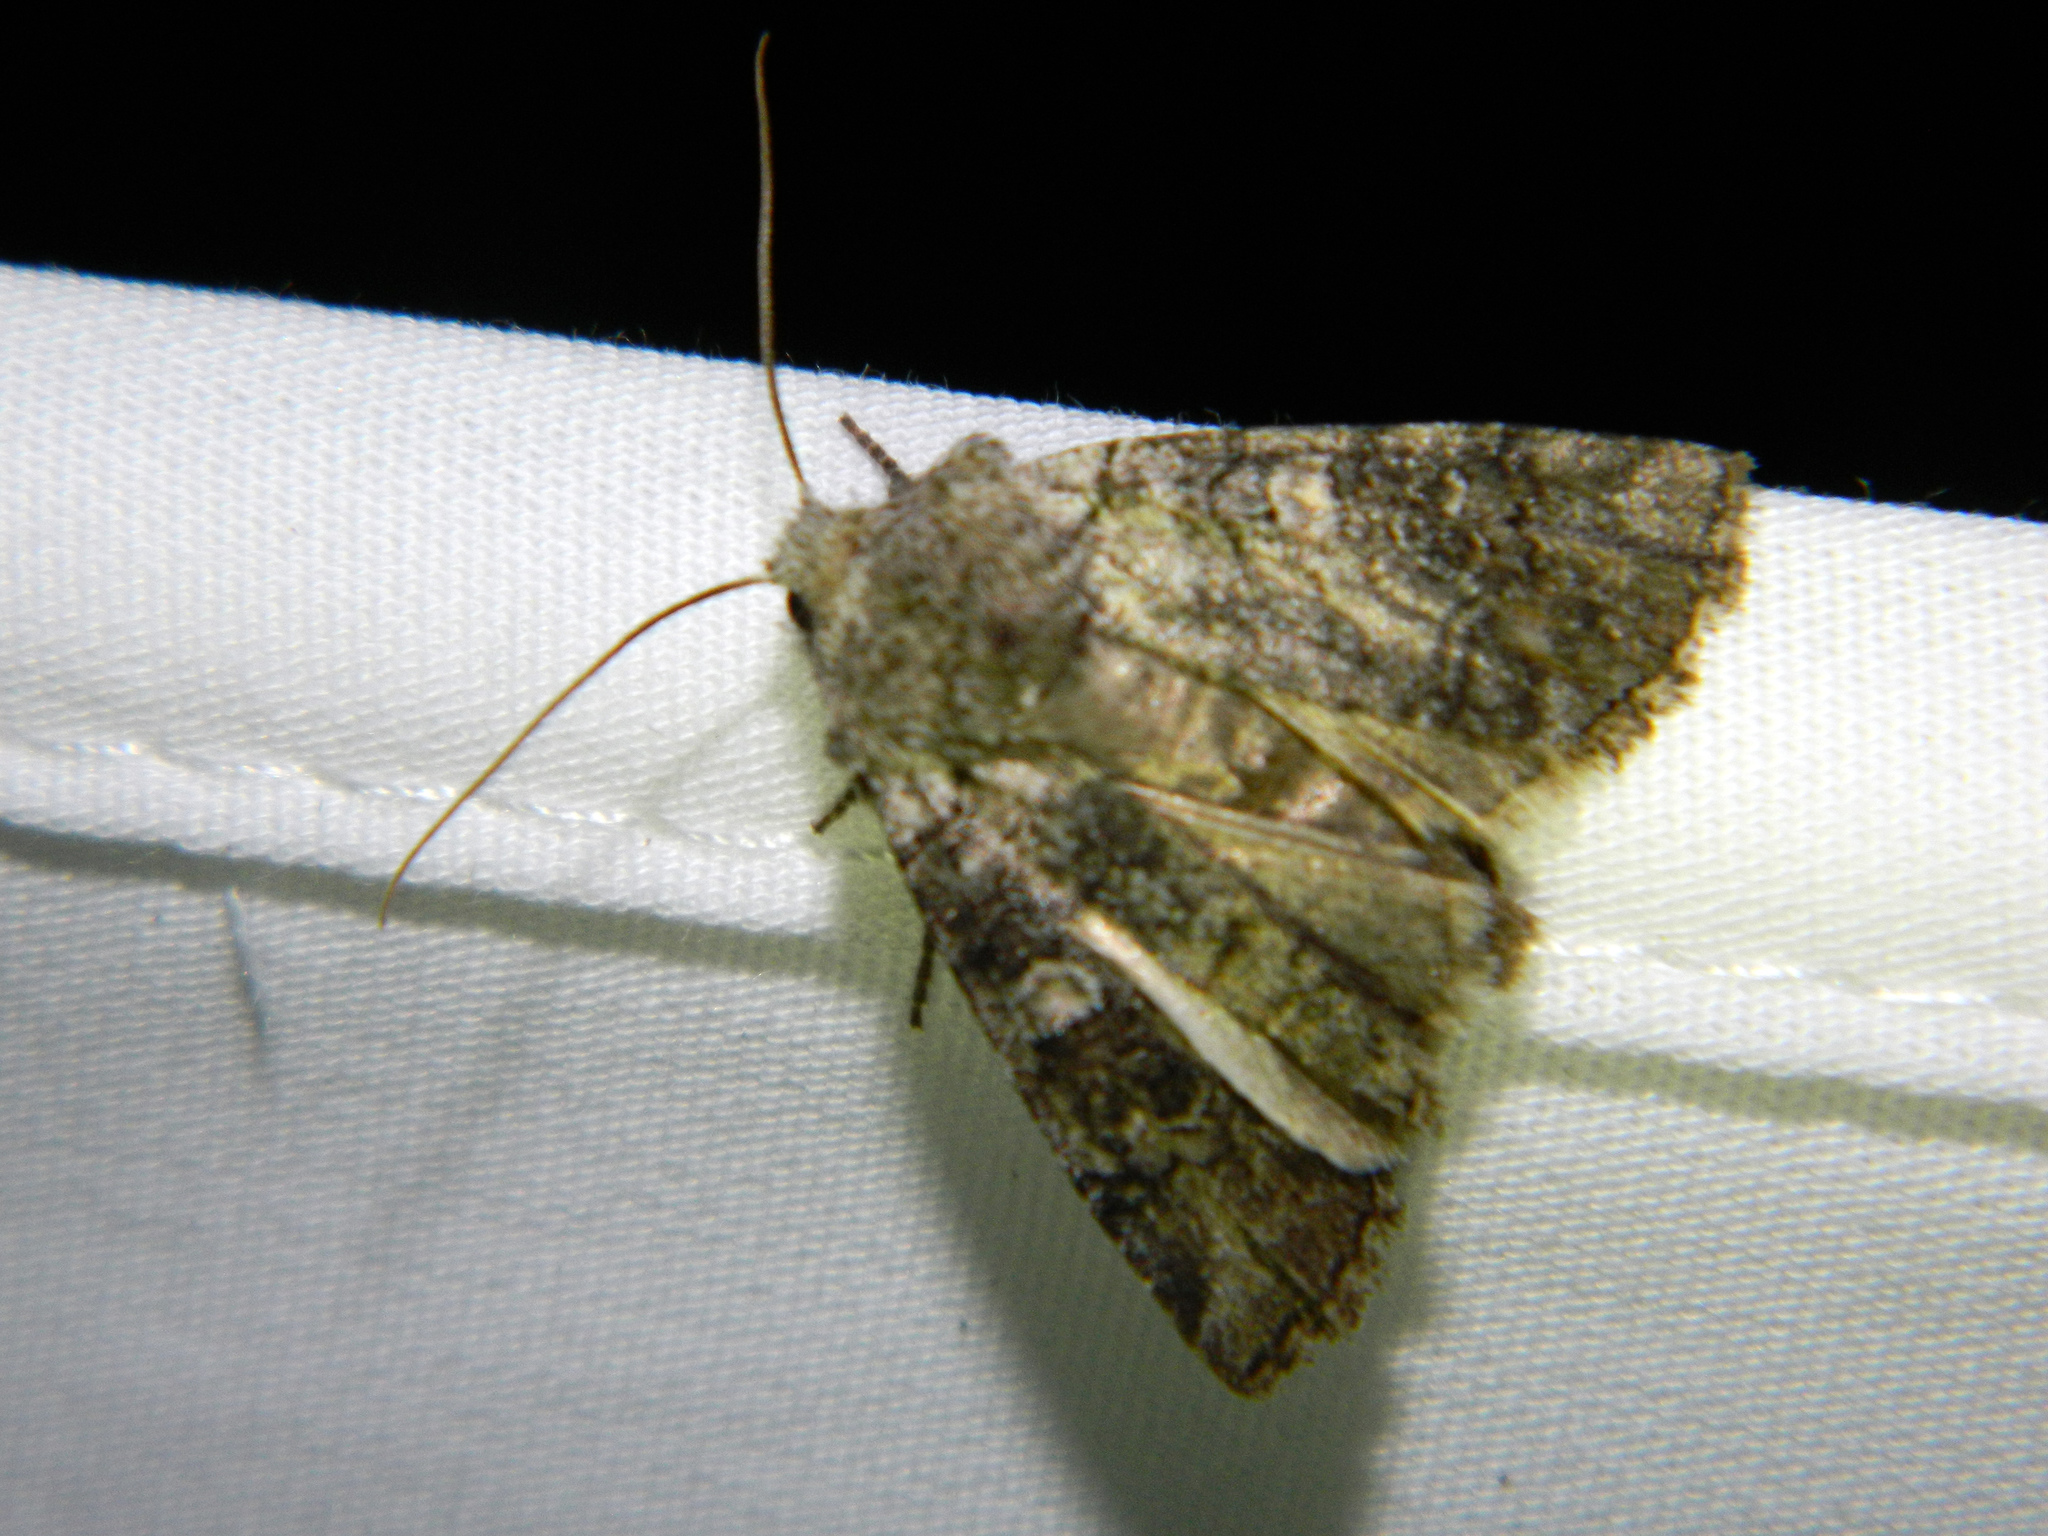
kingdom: Animalia
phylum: Arthropoda
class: Insecta
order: Lepidoptera
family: Noctuidae
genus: Litholomia
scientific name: Litholomia napaea
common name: False pinion moth
